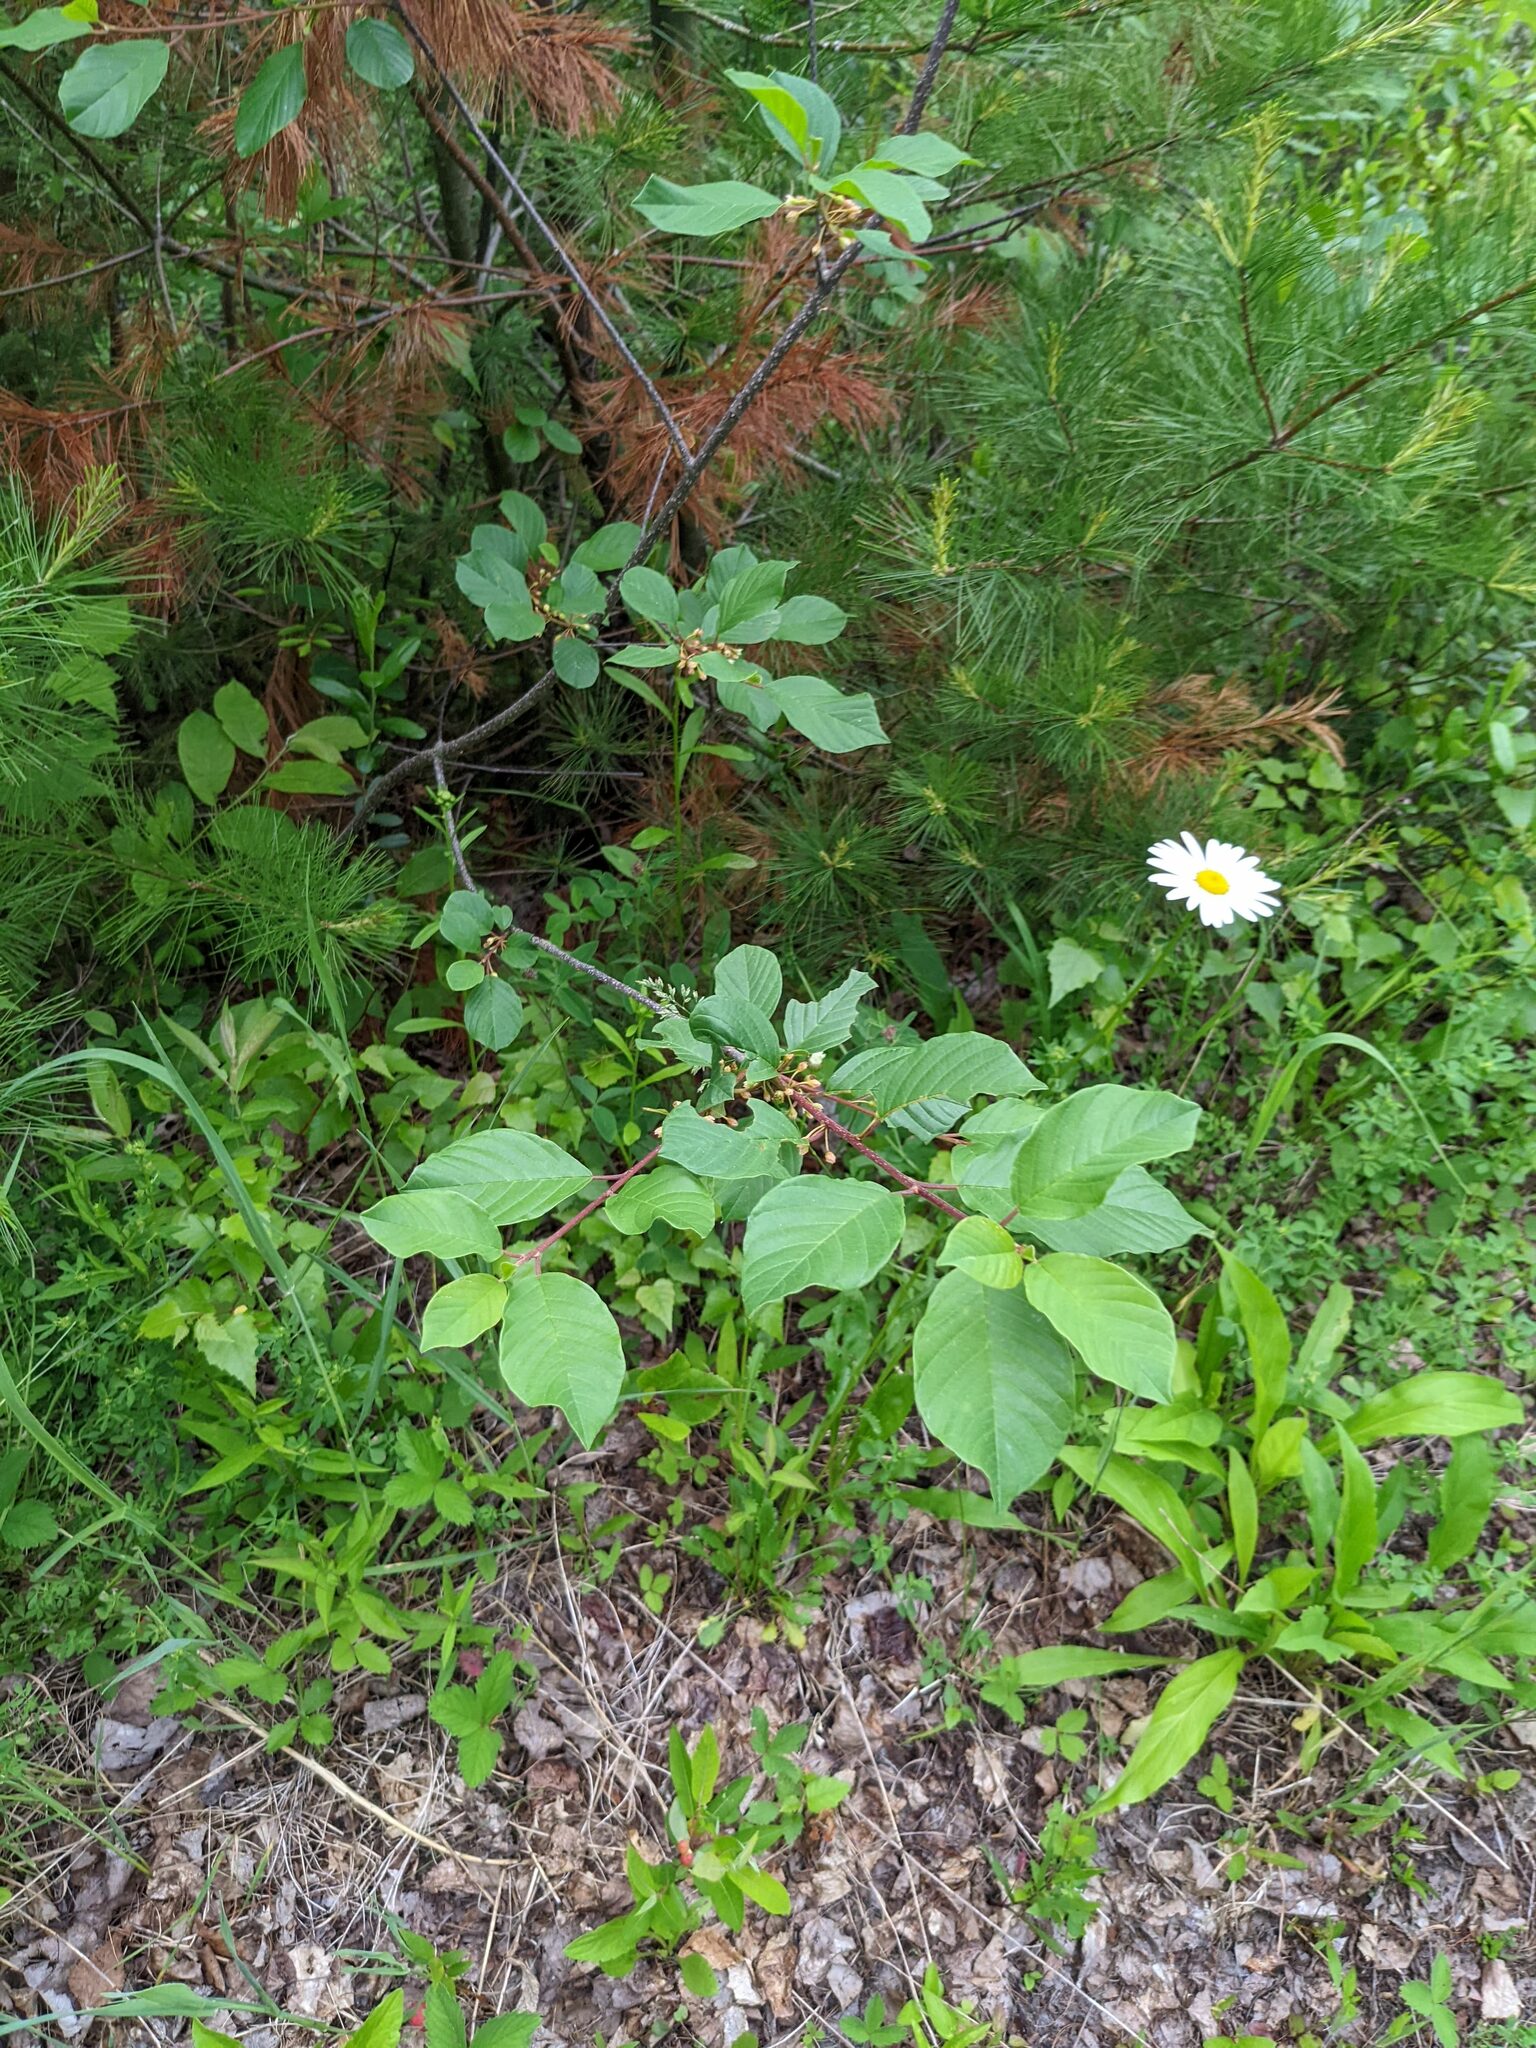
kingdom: Plantae
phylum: Tracheophyta
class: Magnoliopsida
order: Rosales
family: Rhamnaceae
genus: Frangula
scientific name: Frangula alnus
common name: Alder buckthorn
